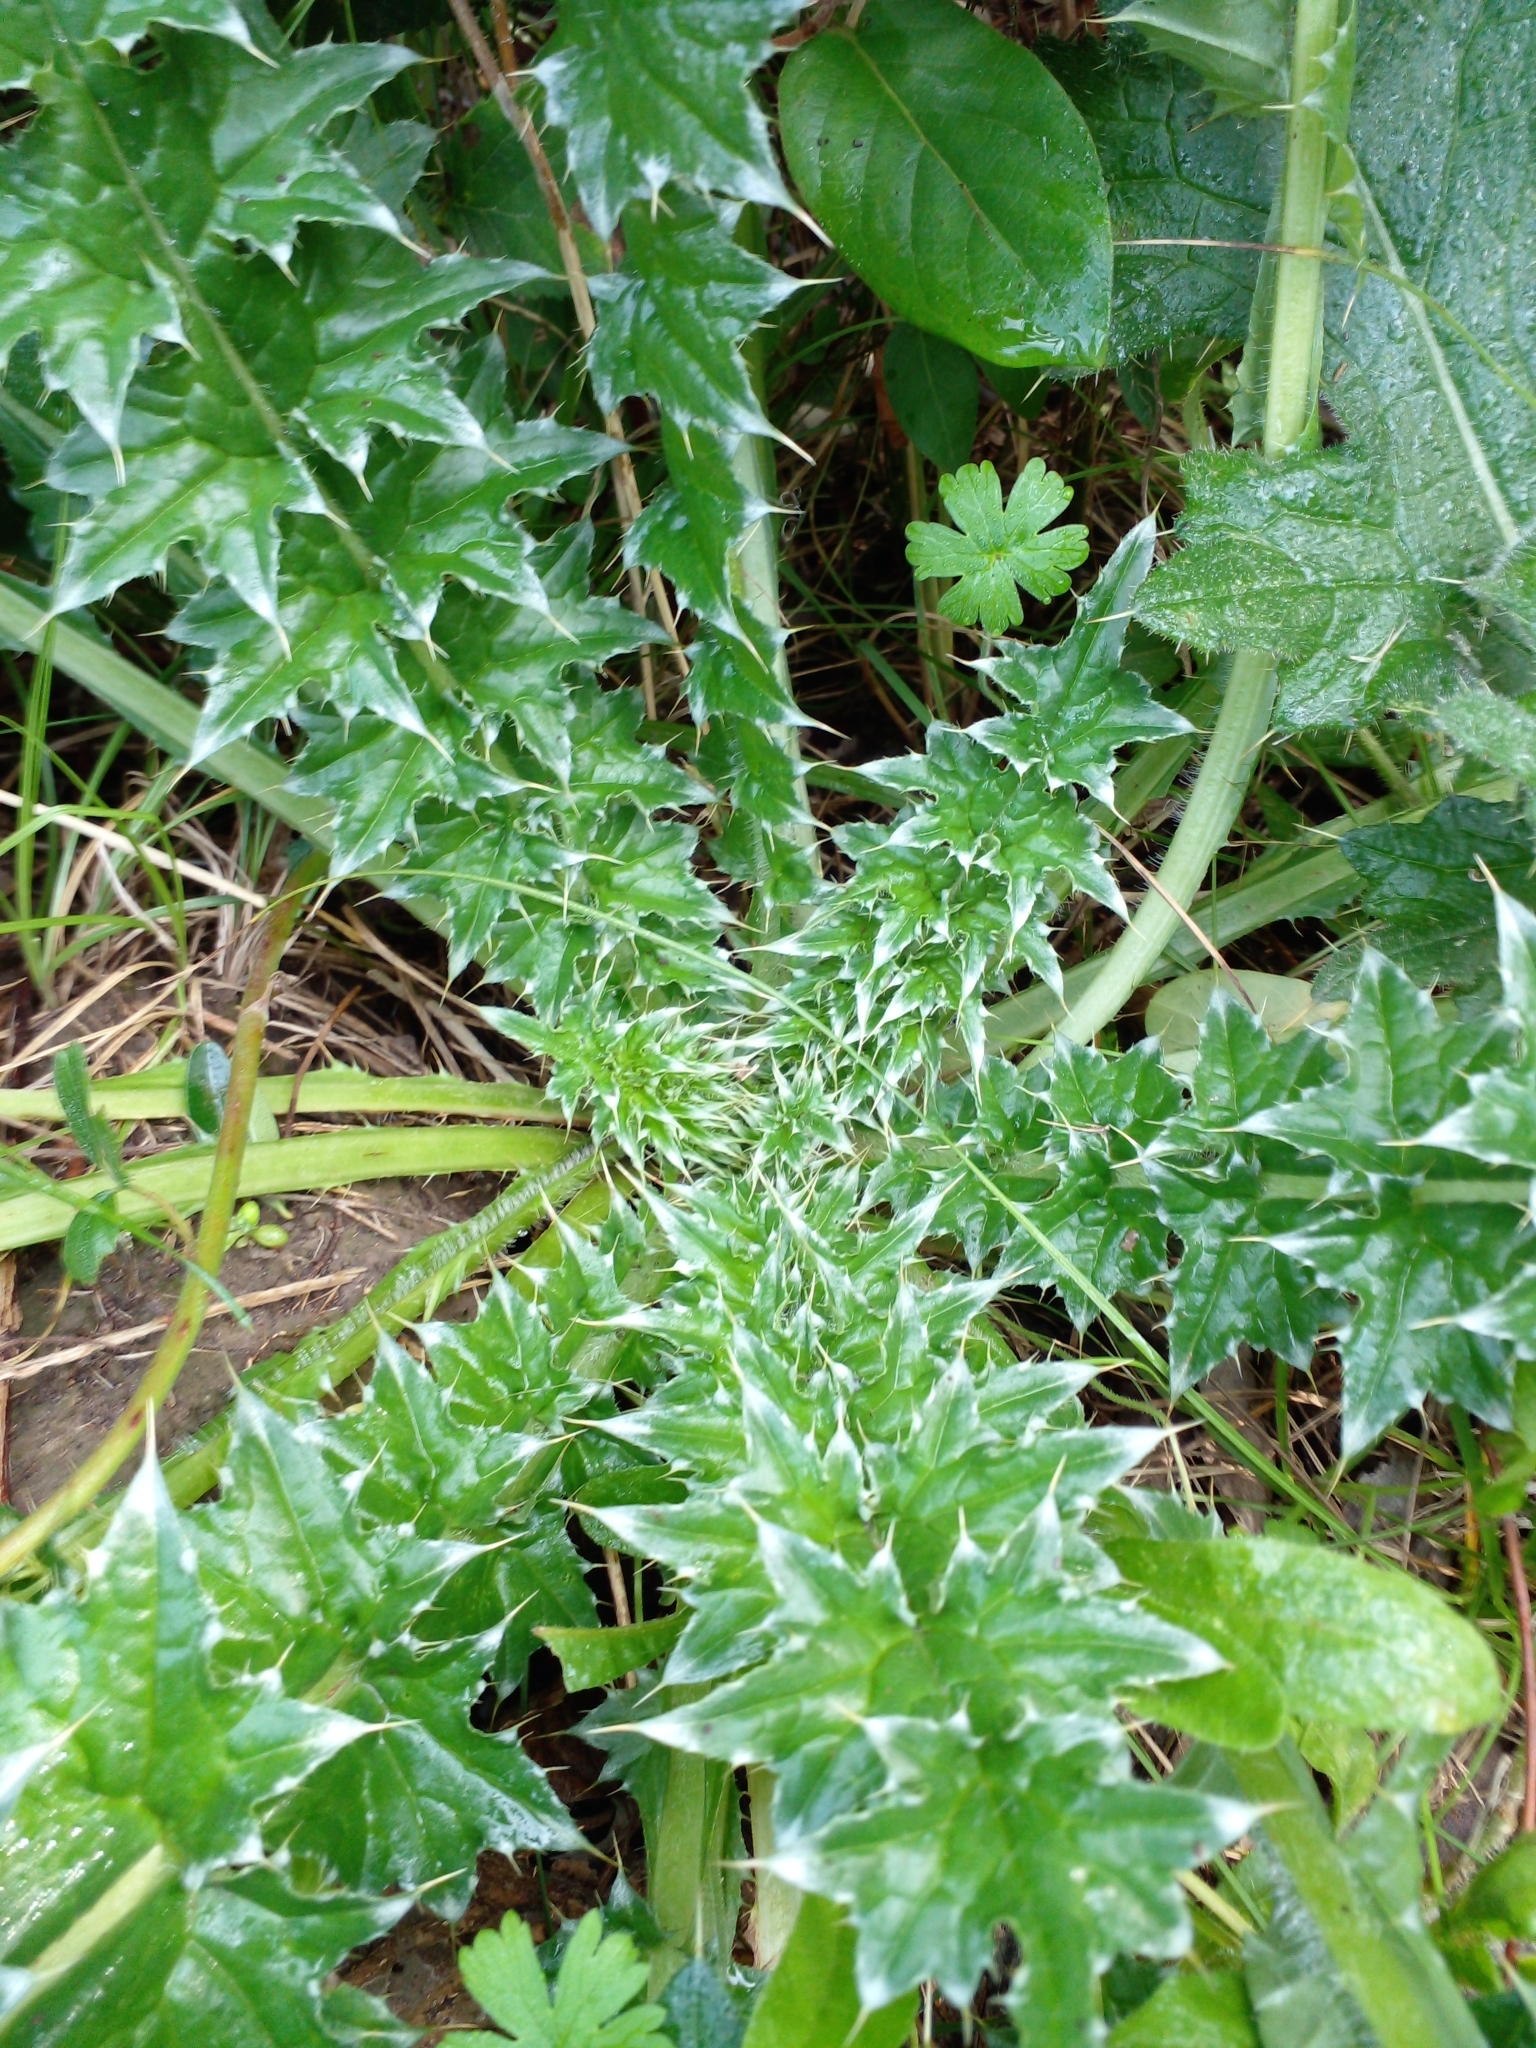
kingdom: Plantae
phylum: Tracheophyta
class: Magnoliopsida
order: Asterales
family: Asteraceae
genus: Carduus
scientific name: Carduus acanthoides
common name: Plumeless thistle
